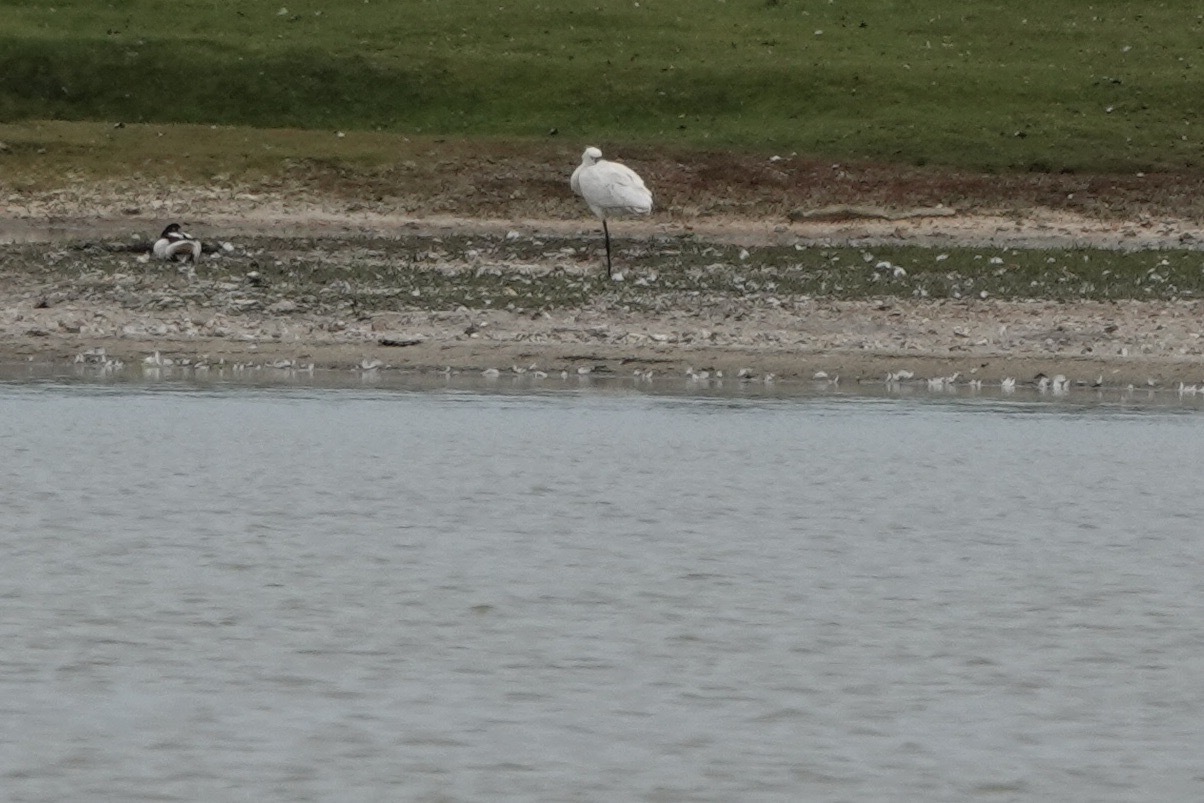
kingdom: Animalia
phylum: Chordata
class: Aves
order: Pelecaniformes
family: Threskiornithidae
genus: Platalea
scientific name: Platalea leucorodia
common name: Eurasian spoonbill
